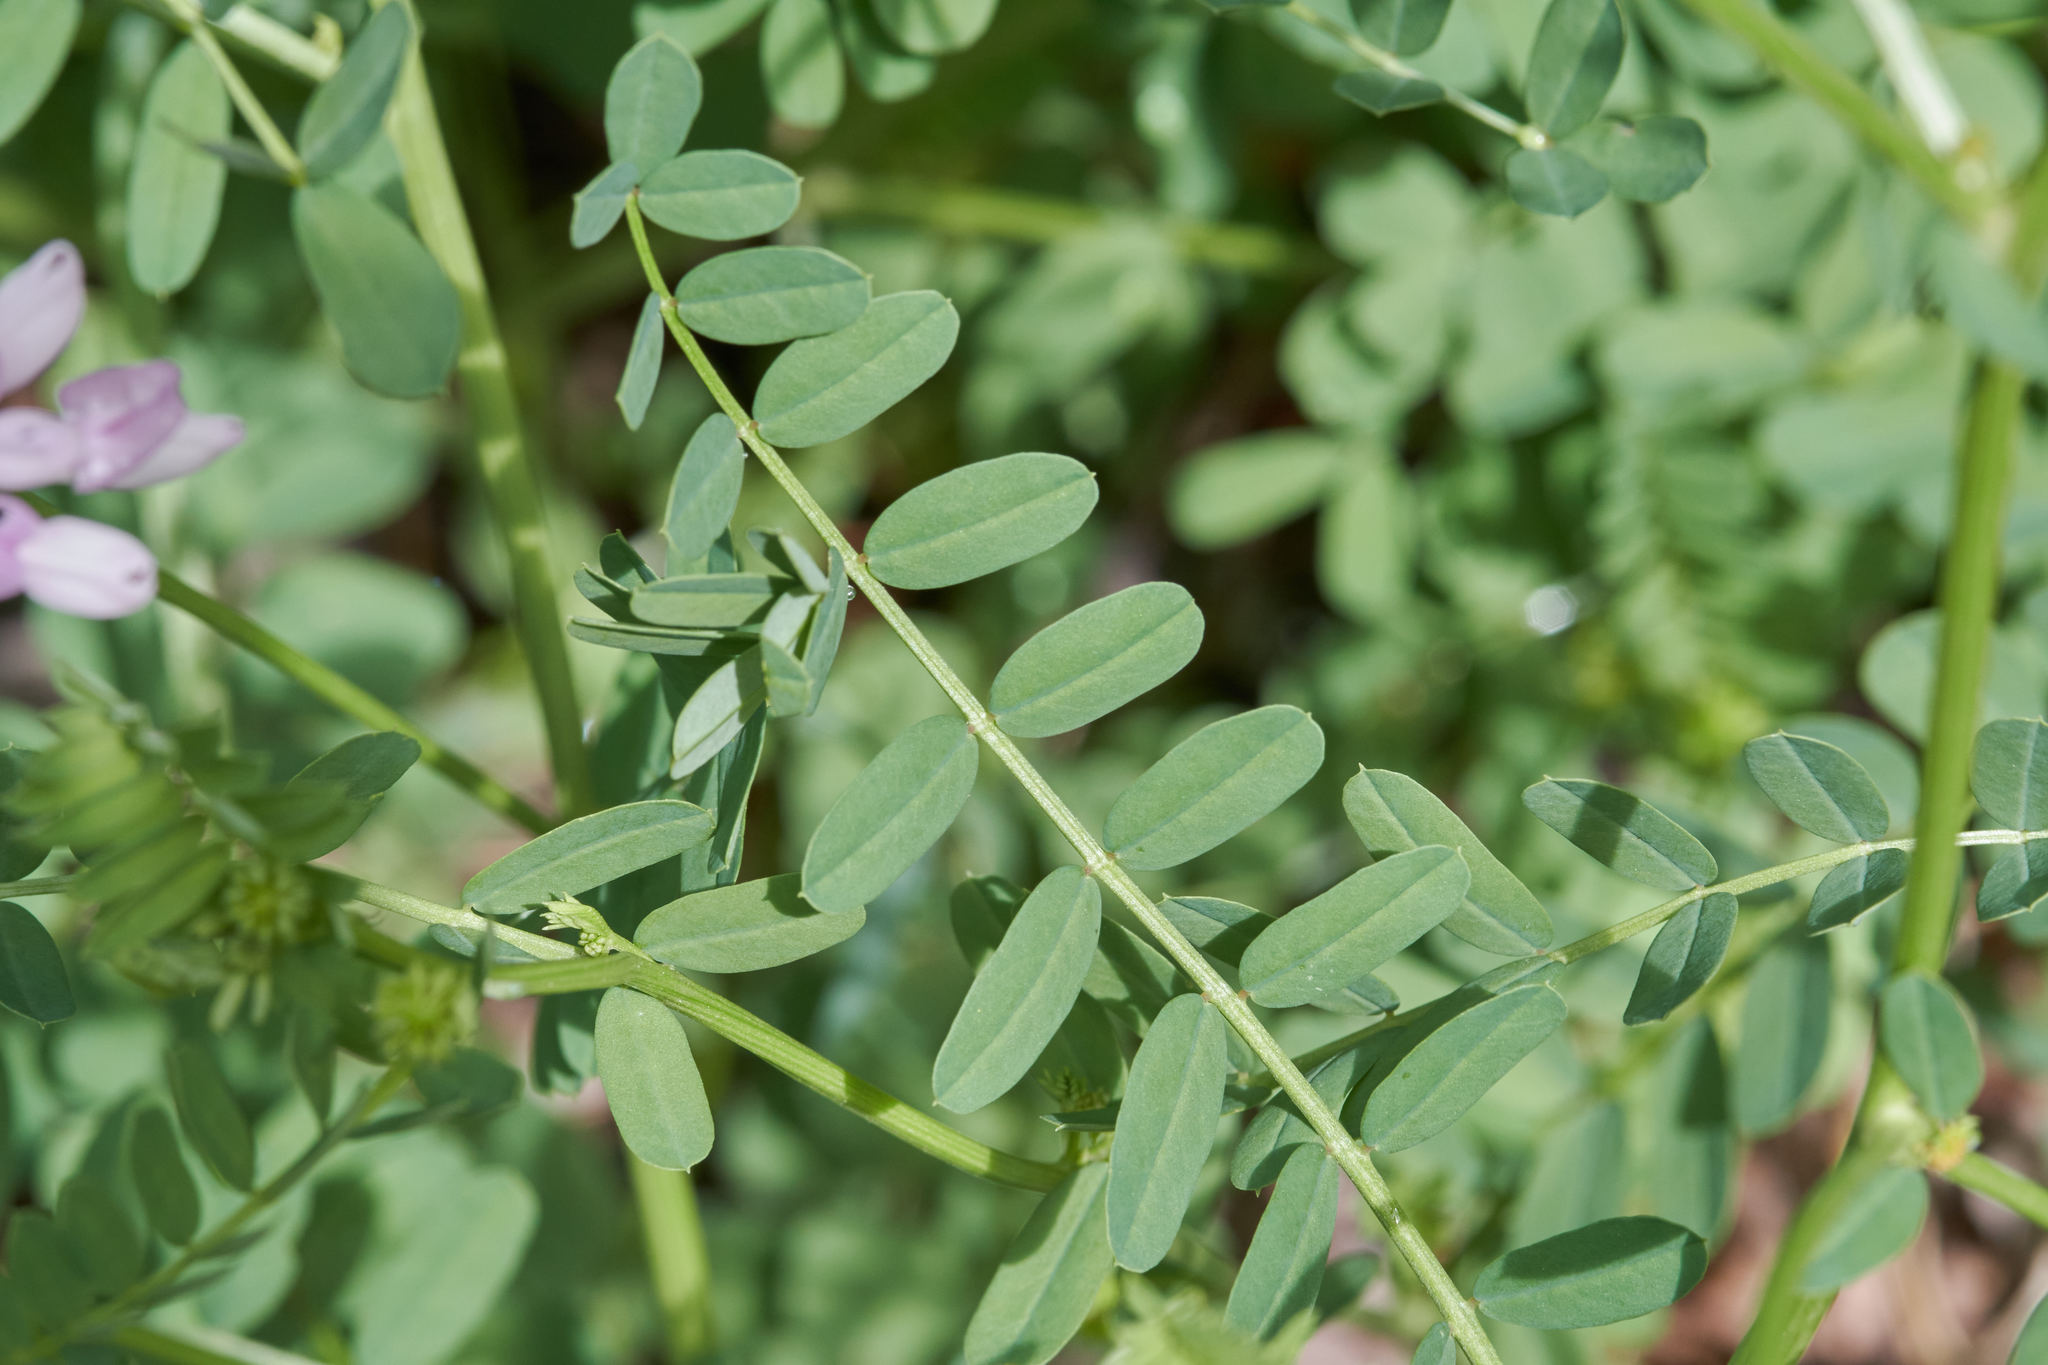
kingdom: Plantae
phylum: Tracheophyta
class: Magnoliopsida
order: Fabales
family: Fabaceae
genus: Coronilla
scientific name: Coronilla varia
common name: Crownvetch
